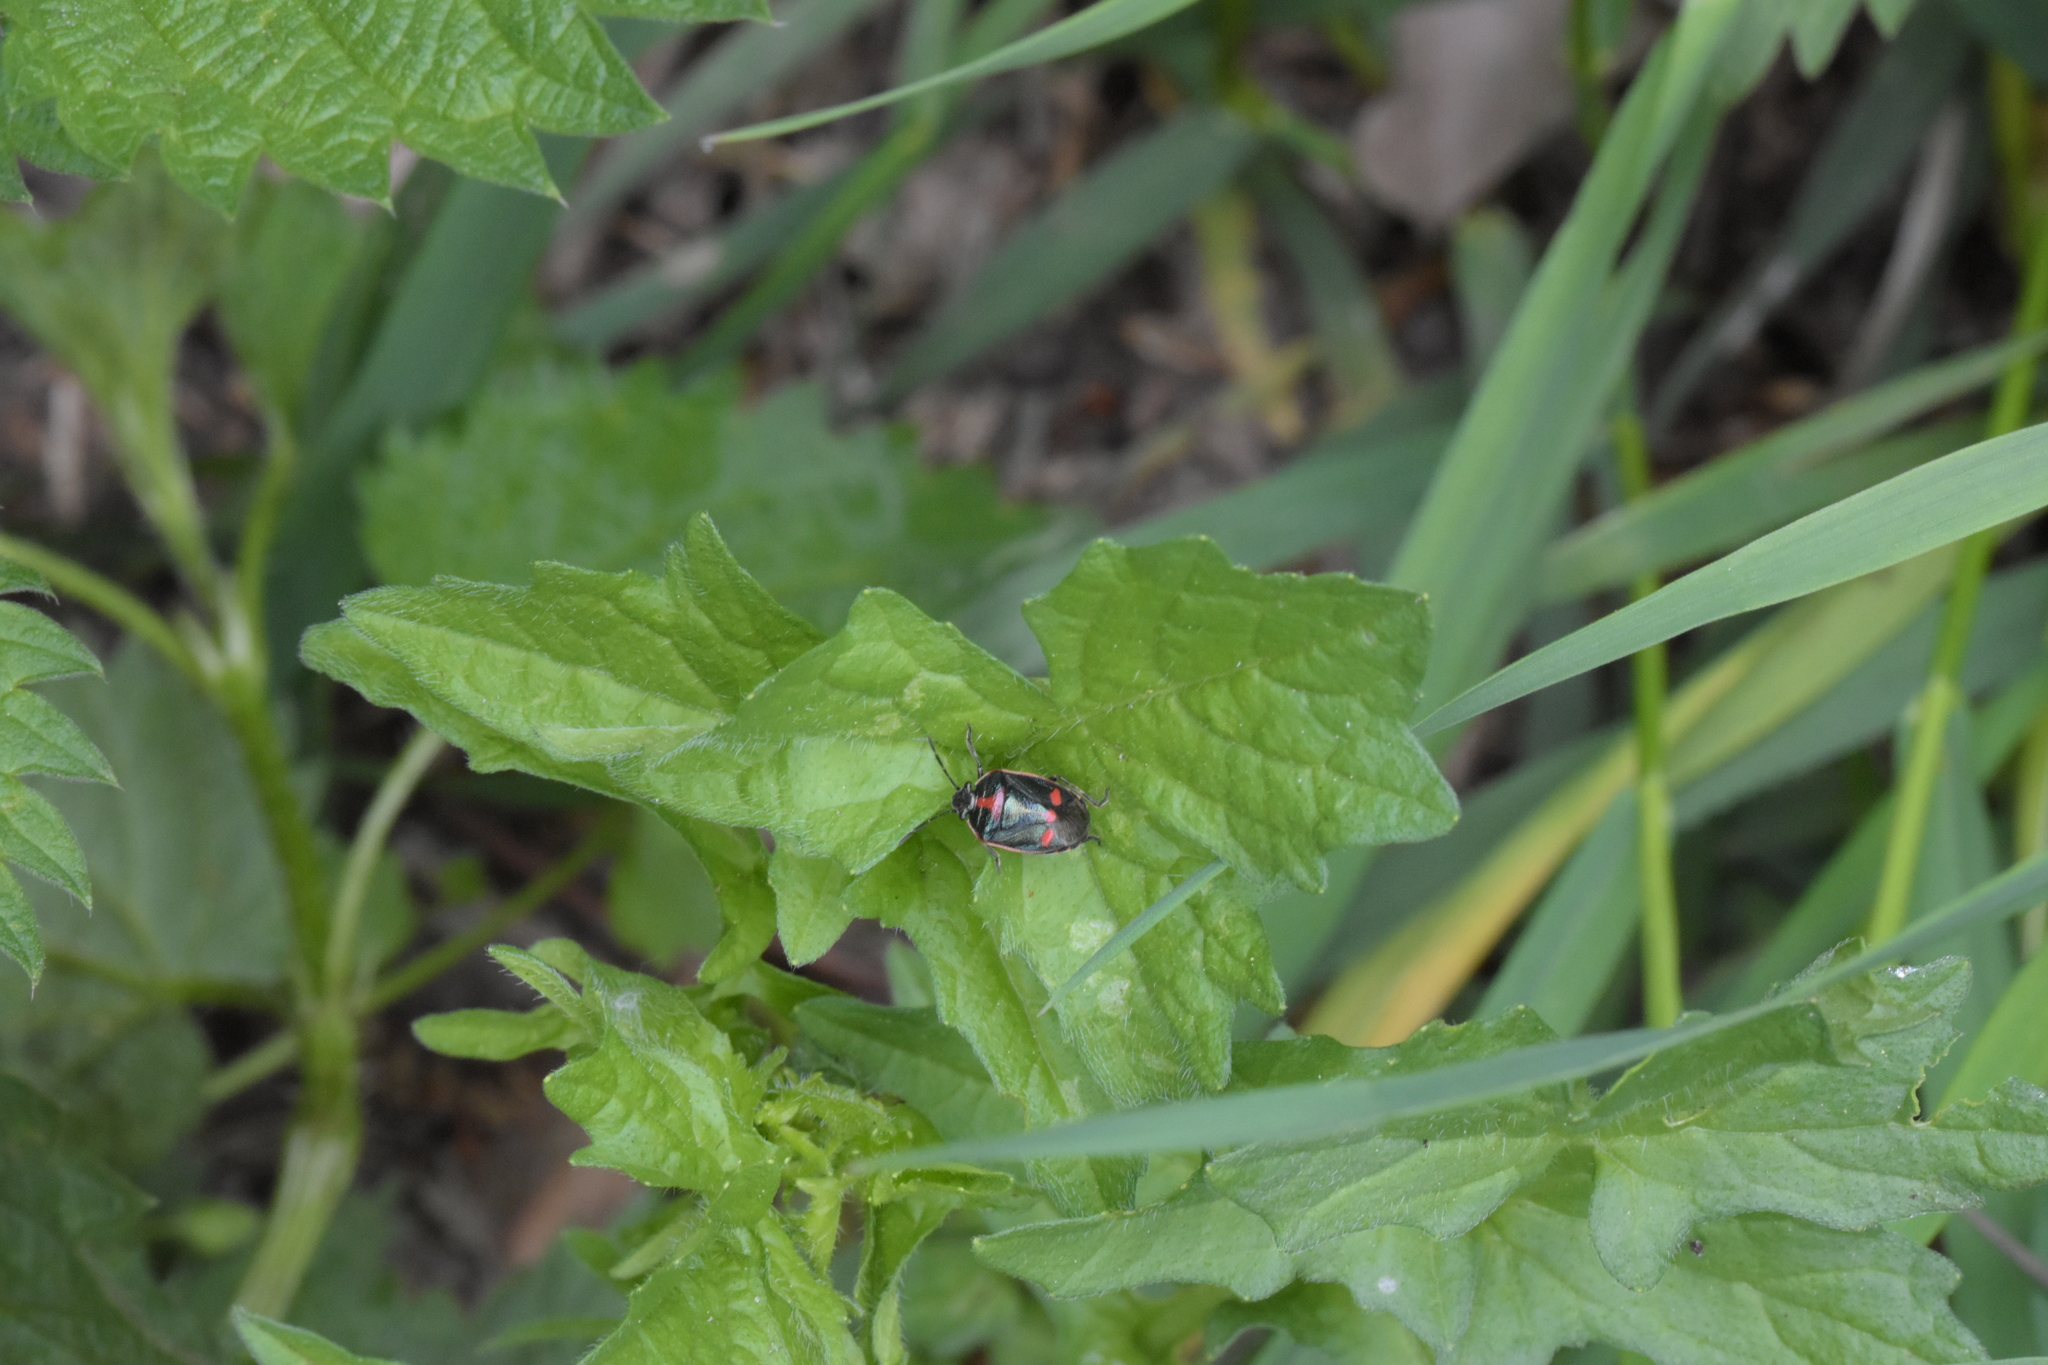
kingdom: Animalia
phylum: Arthropoda
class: Insecta
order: Hemiptera
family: Pentatomidae
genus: Eurydema
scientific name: Eurydema oleracea
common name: Cabbage bug
